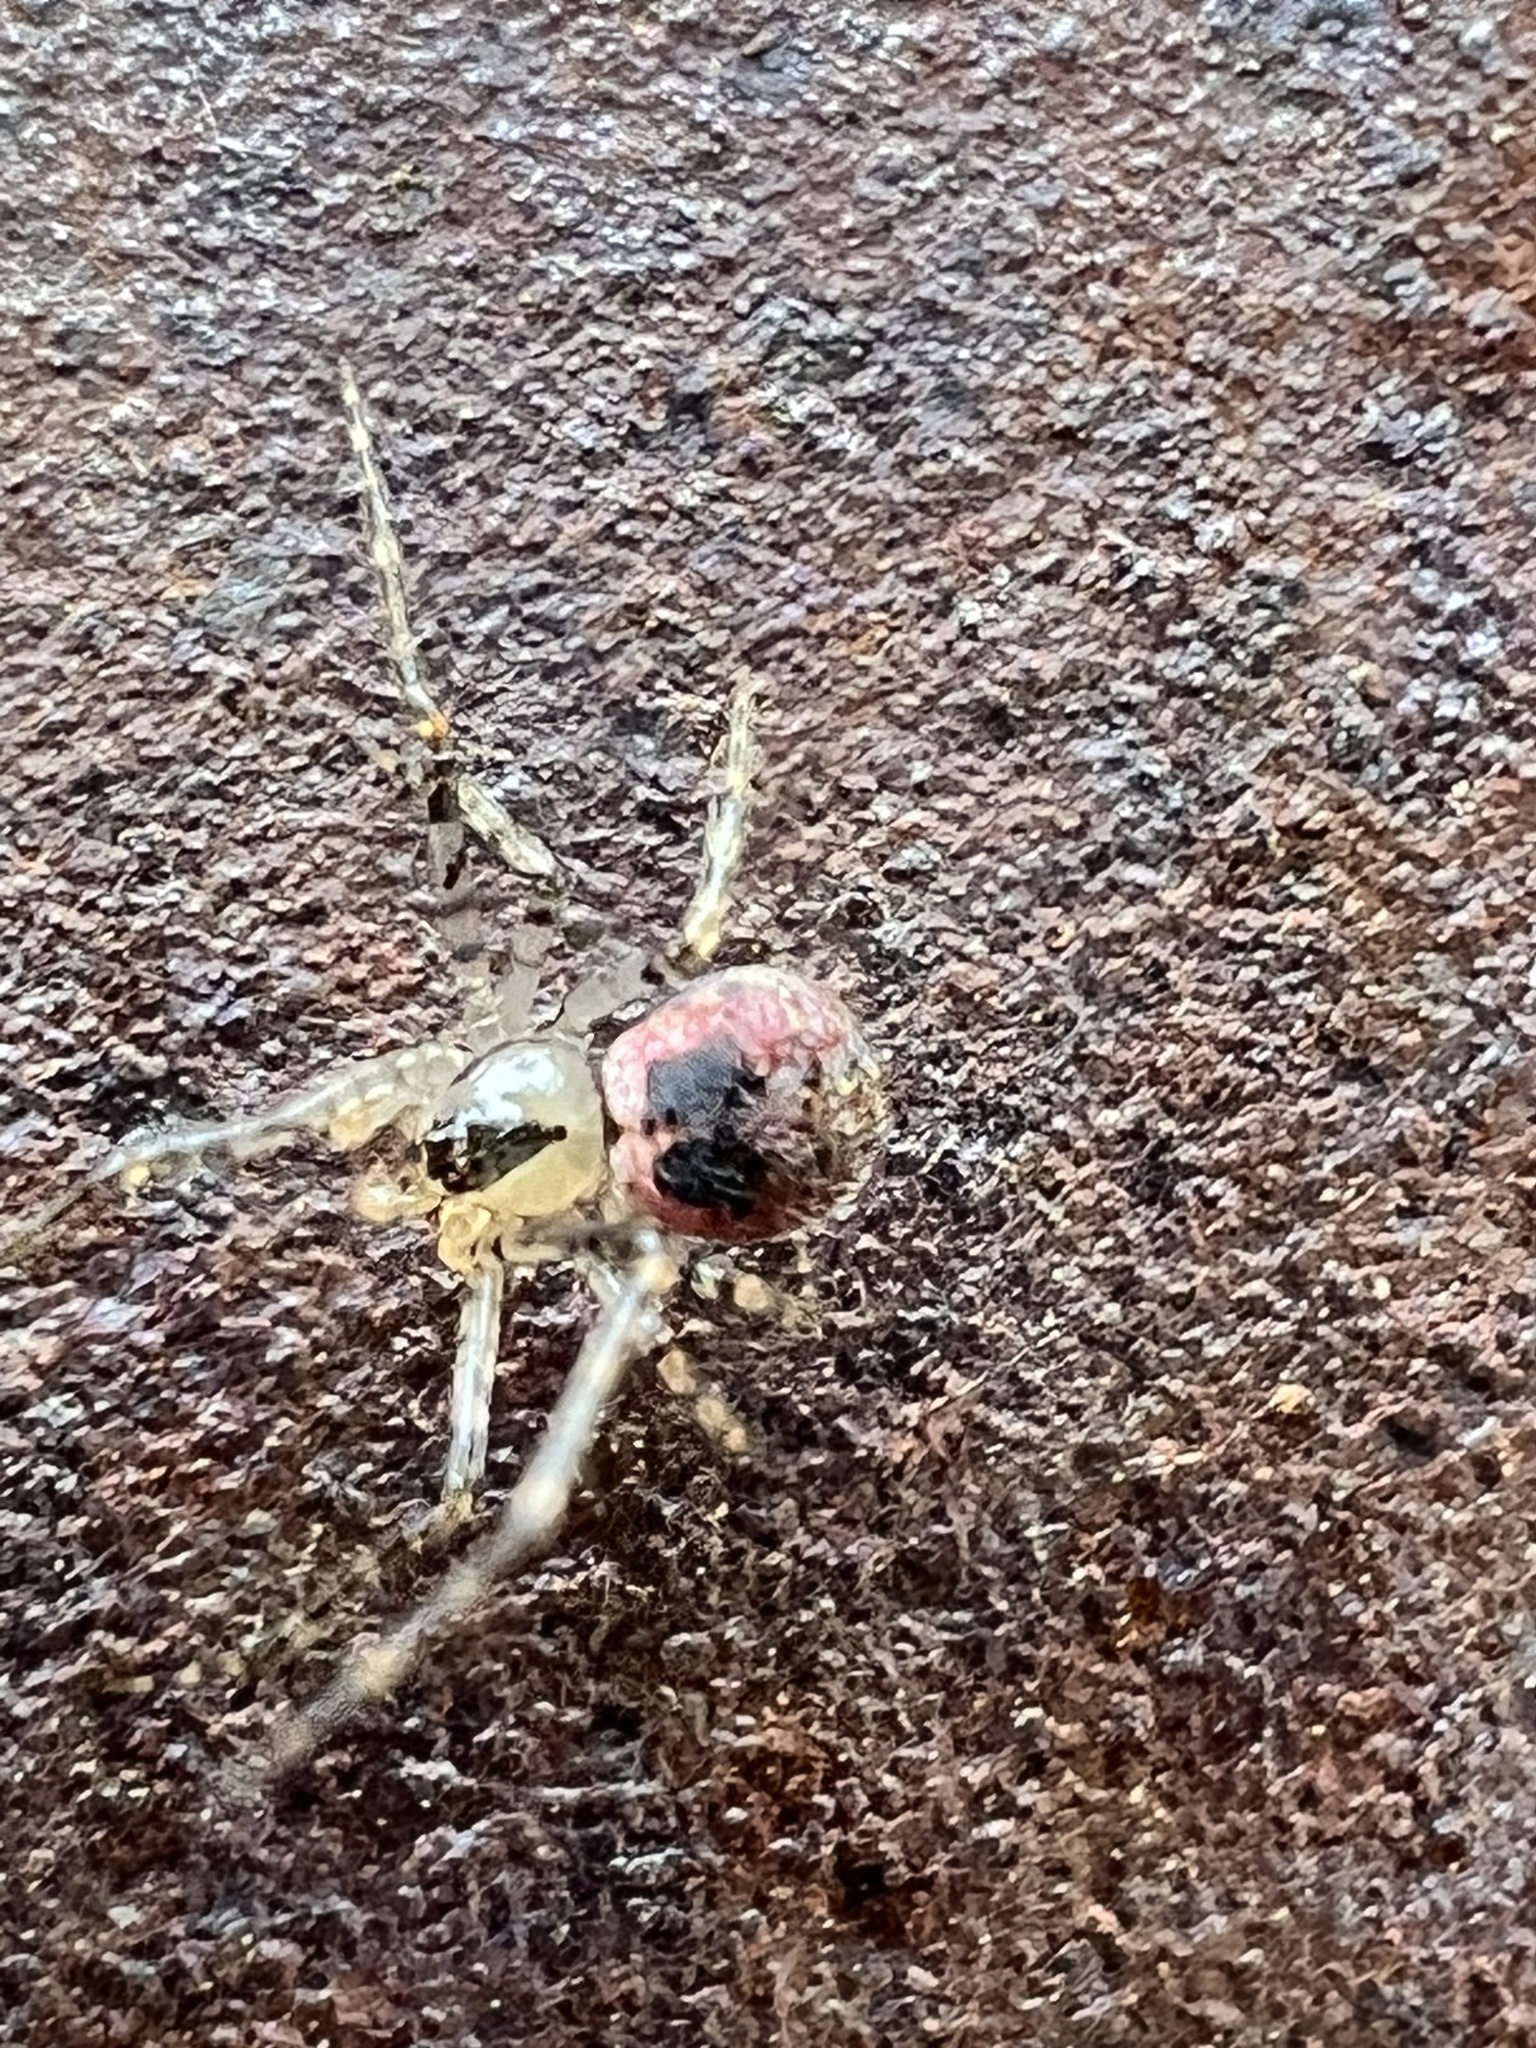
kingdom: Animalia
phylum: Arthropoda
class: Arachnida
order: Araneae
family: Theridiidae
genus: Platnickina
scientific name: Platnickina tincta
